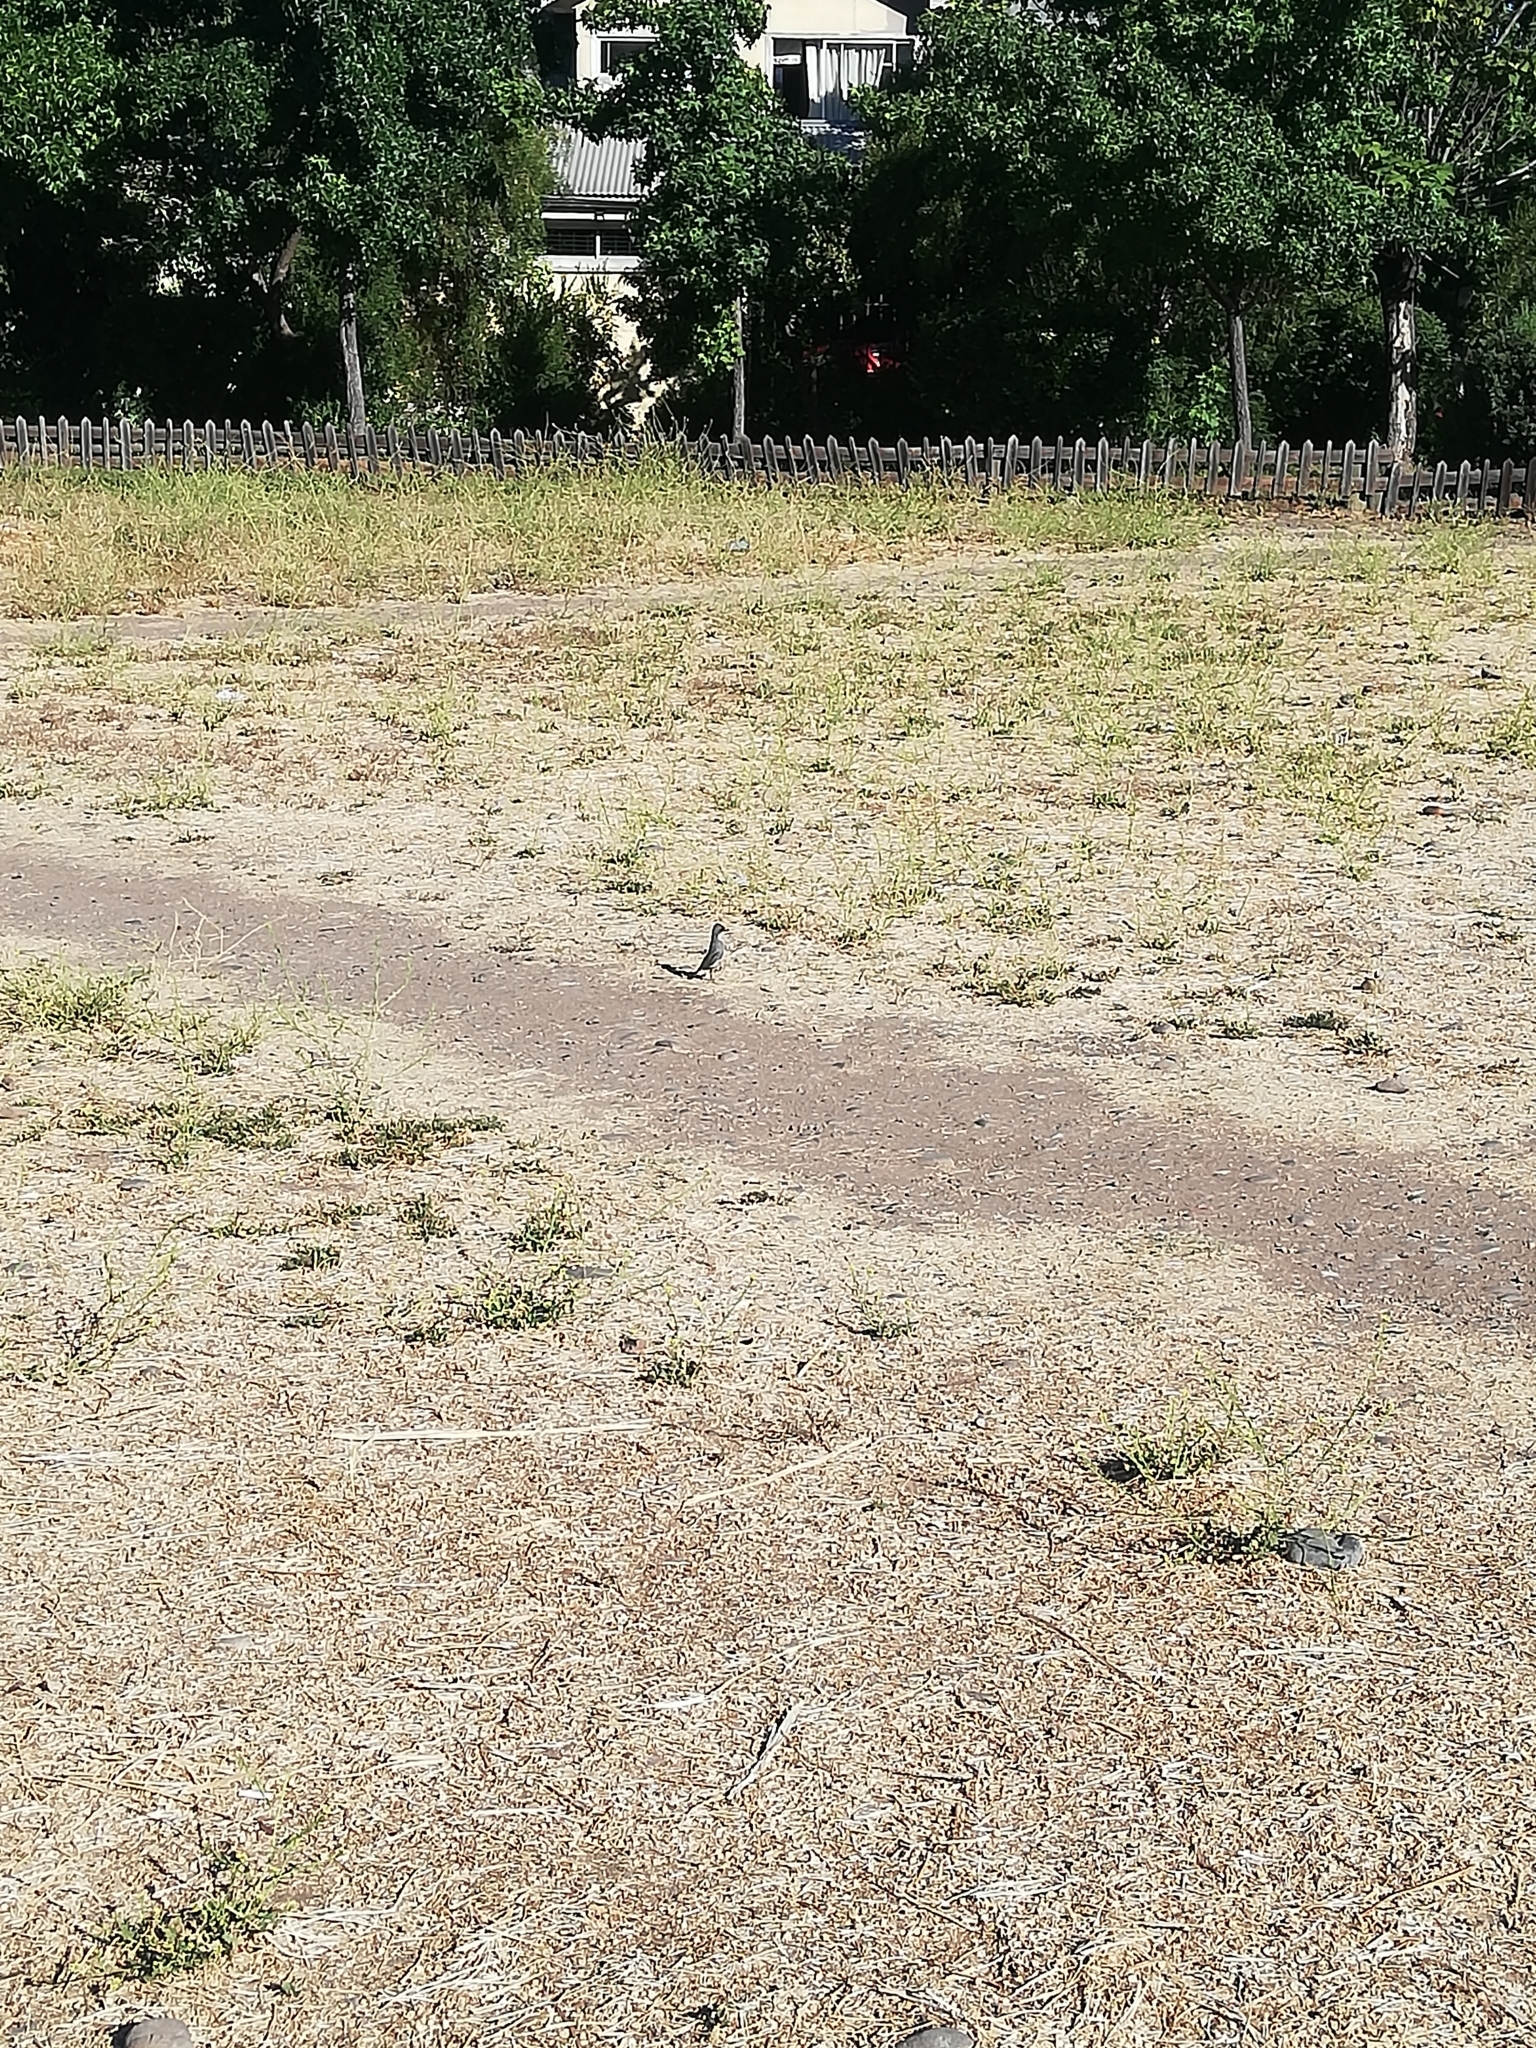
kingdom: Animalia
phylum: Chordata
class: Aves
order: Passeriformes
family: Thraupidae
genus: Diuca
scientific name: Diuca diuca
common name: Common diuca finch
